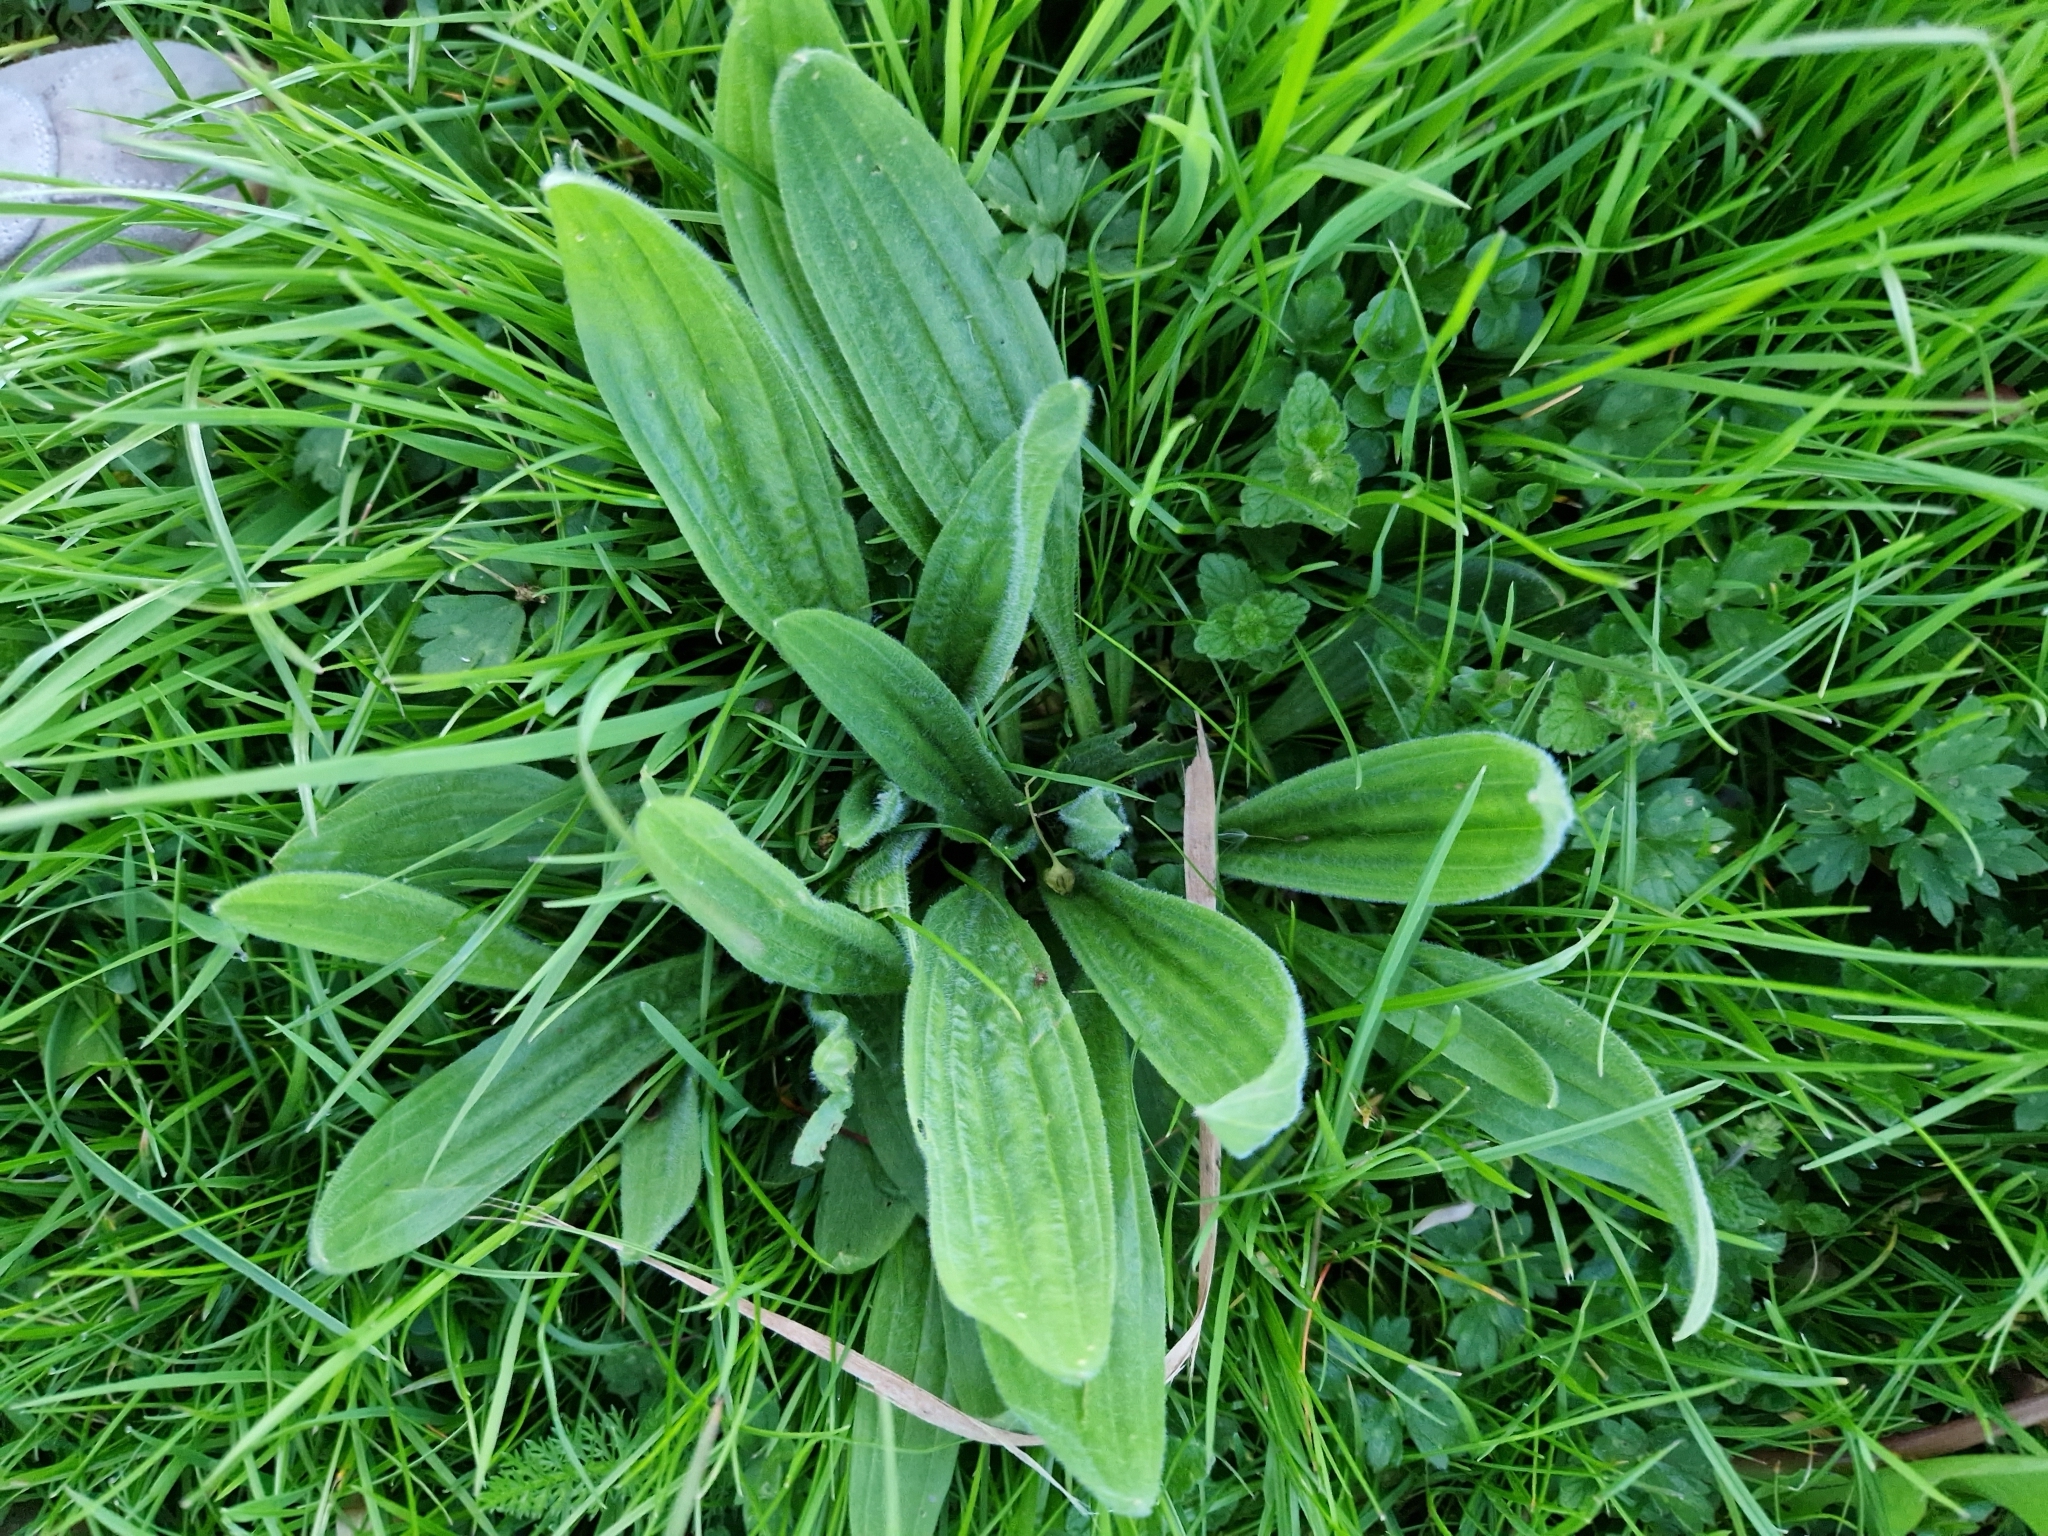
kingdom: Plantae
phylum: Tracheophyta
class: Magnoliopsida
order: Lamiales
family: Plantaginaceae
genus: Plantago
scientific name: Plantago lanceolata
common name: Ribwort plantain
